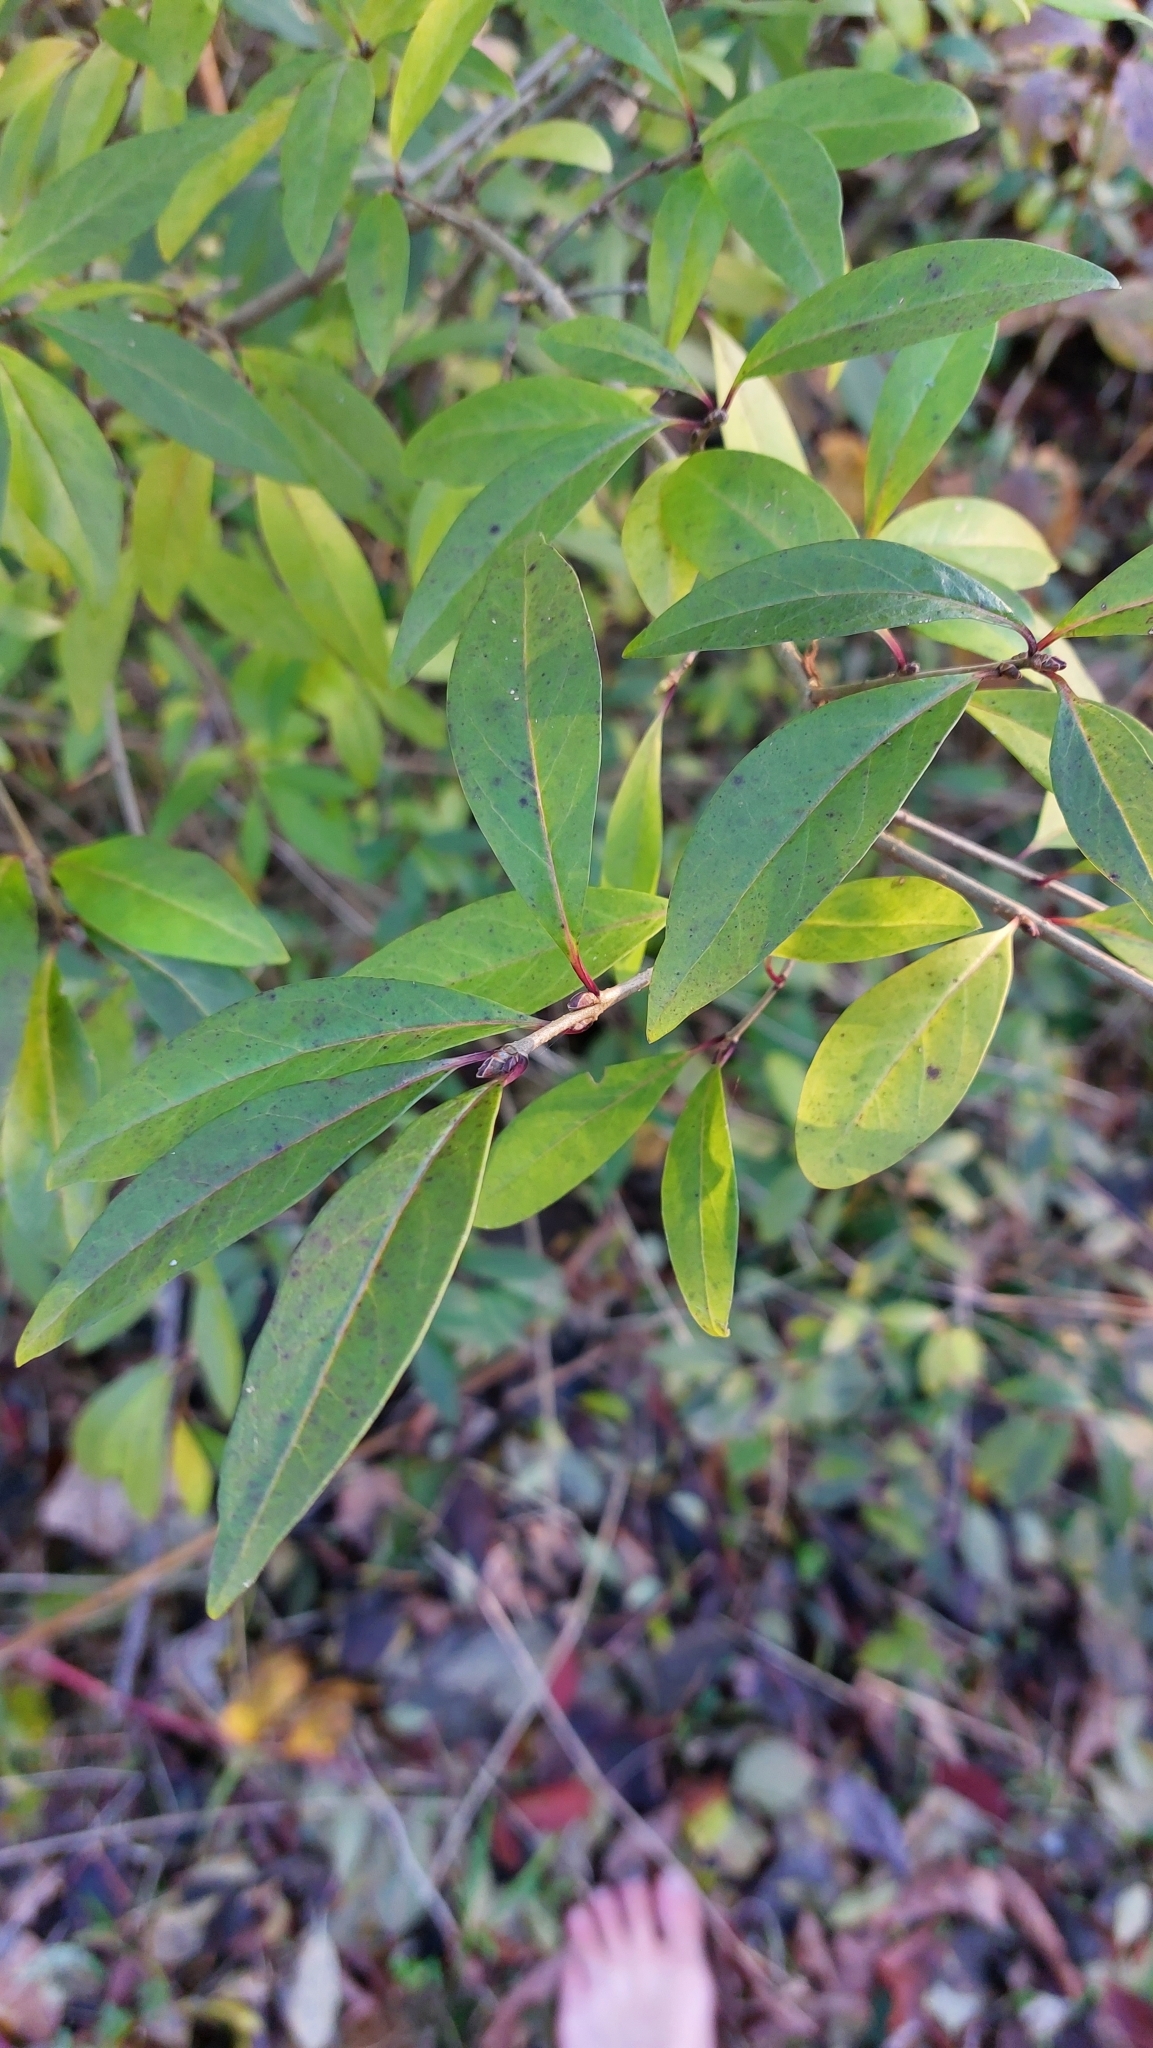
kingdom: Plantae
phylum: Tracheophyta
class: Magnoliopsida
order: Lamiales
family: Oleaceae
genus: Ligustrum
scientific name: Ligustrum vulgare
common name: Wild privet
